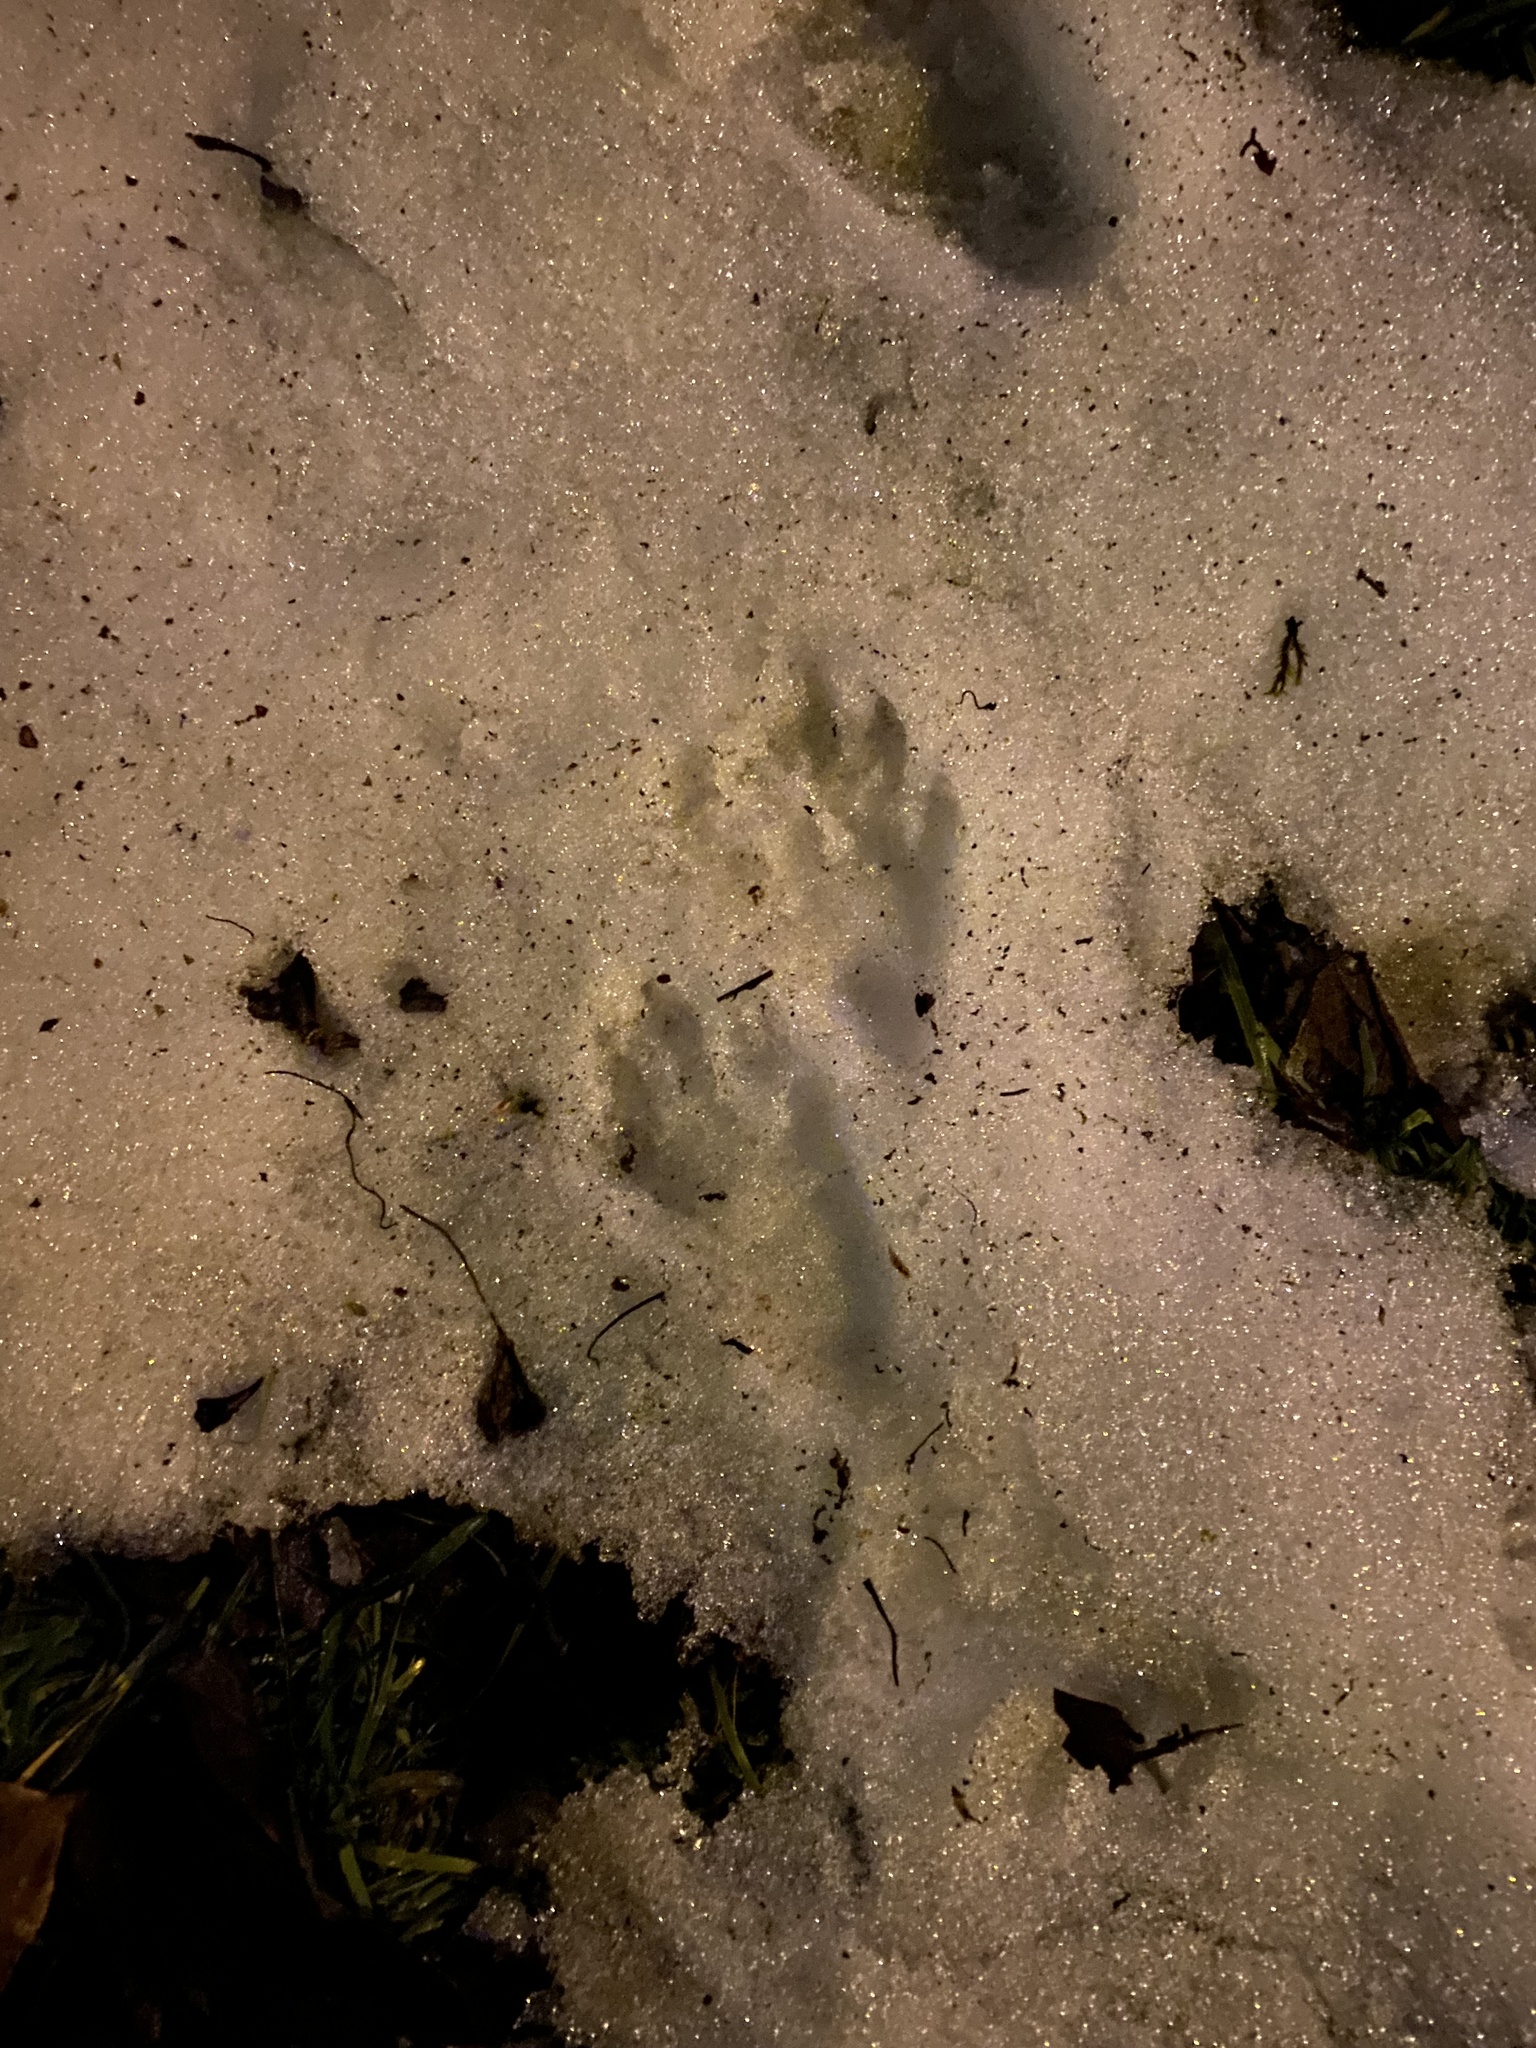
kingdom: Animalia
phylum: Chordata
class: Mammalia
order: Carnivora
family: Procyonidae
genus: Procyon
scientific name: Procyon lotor
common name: Raccoon
